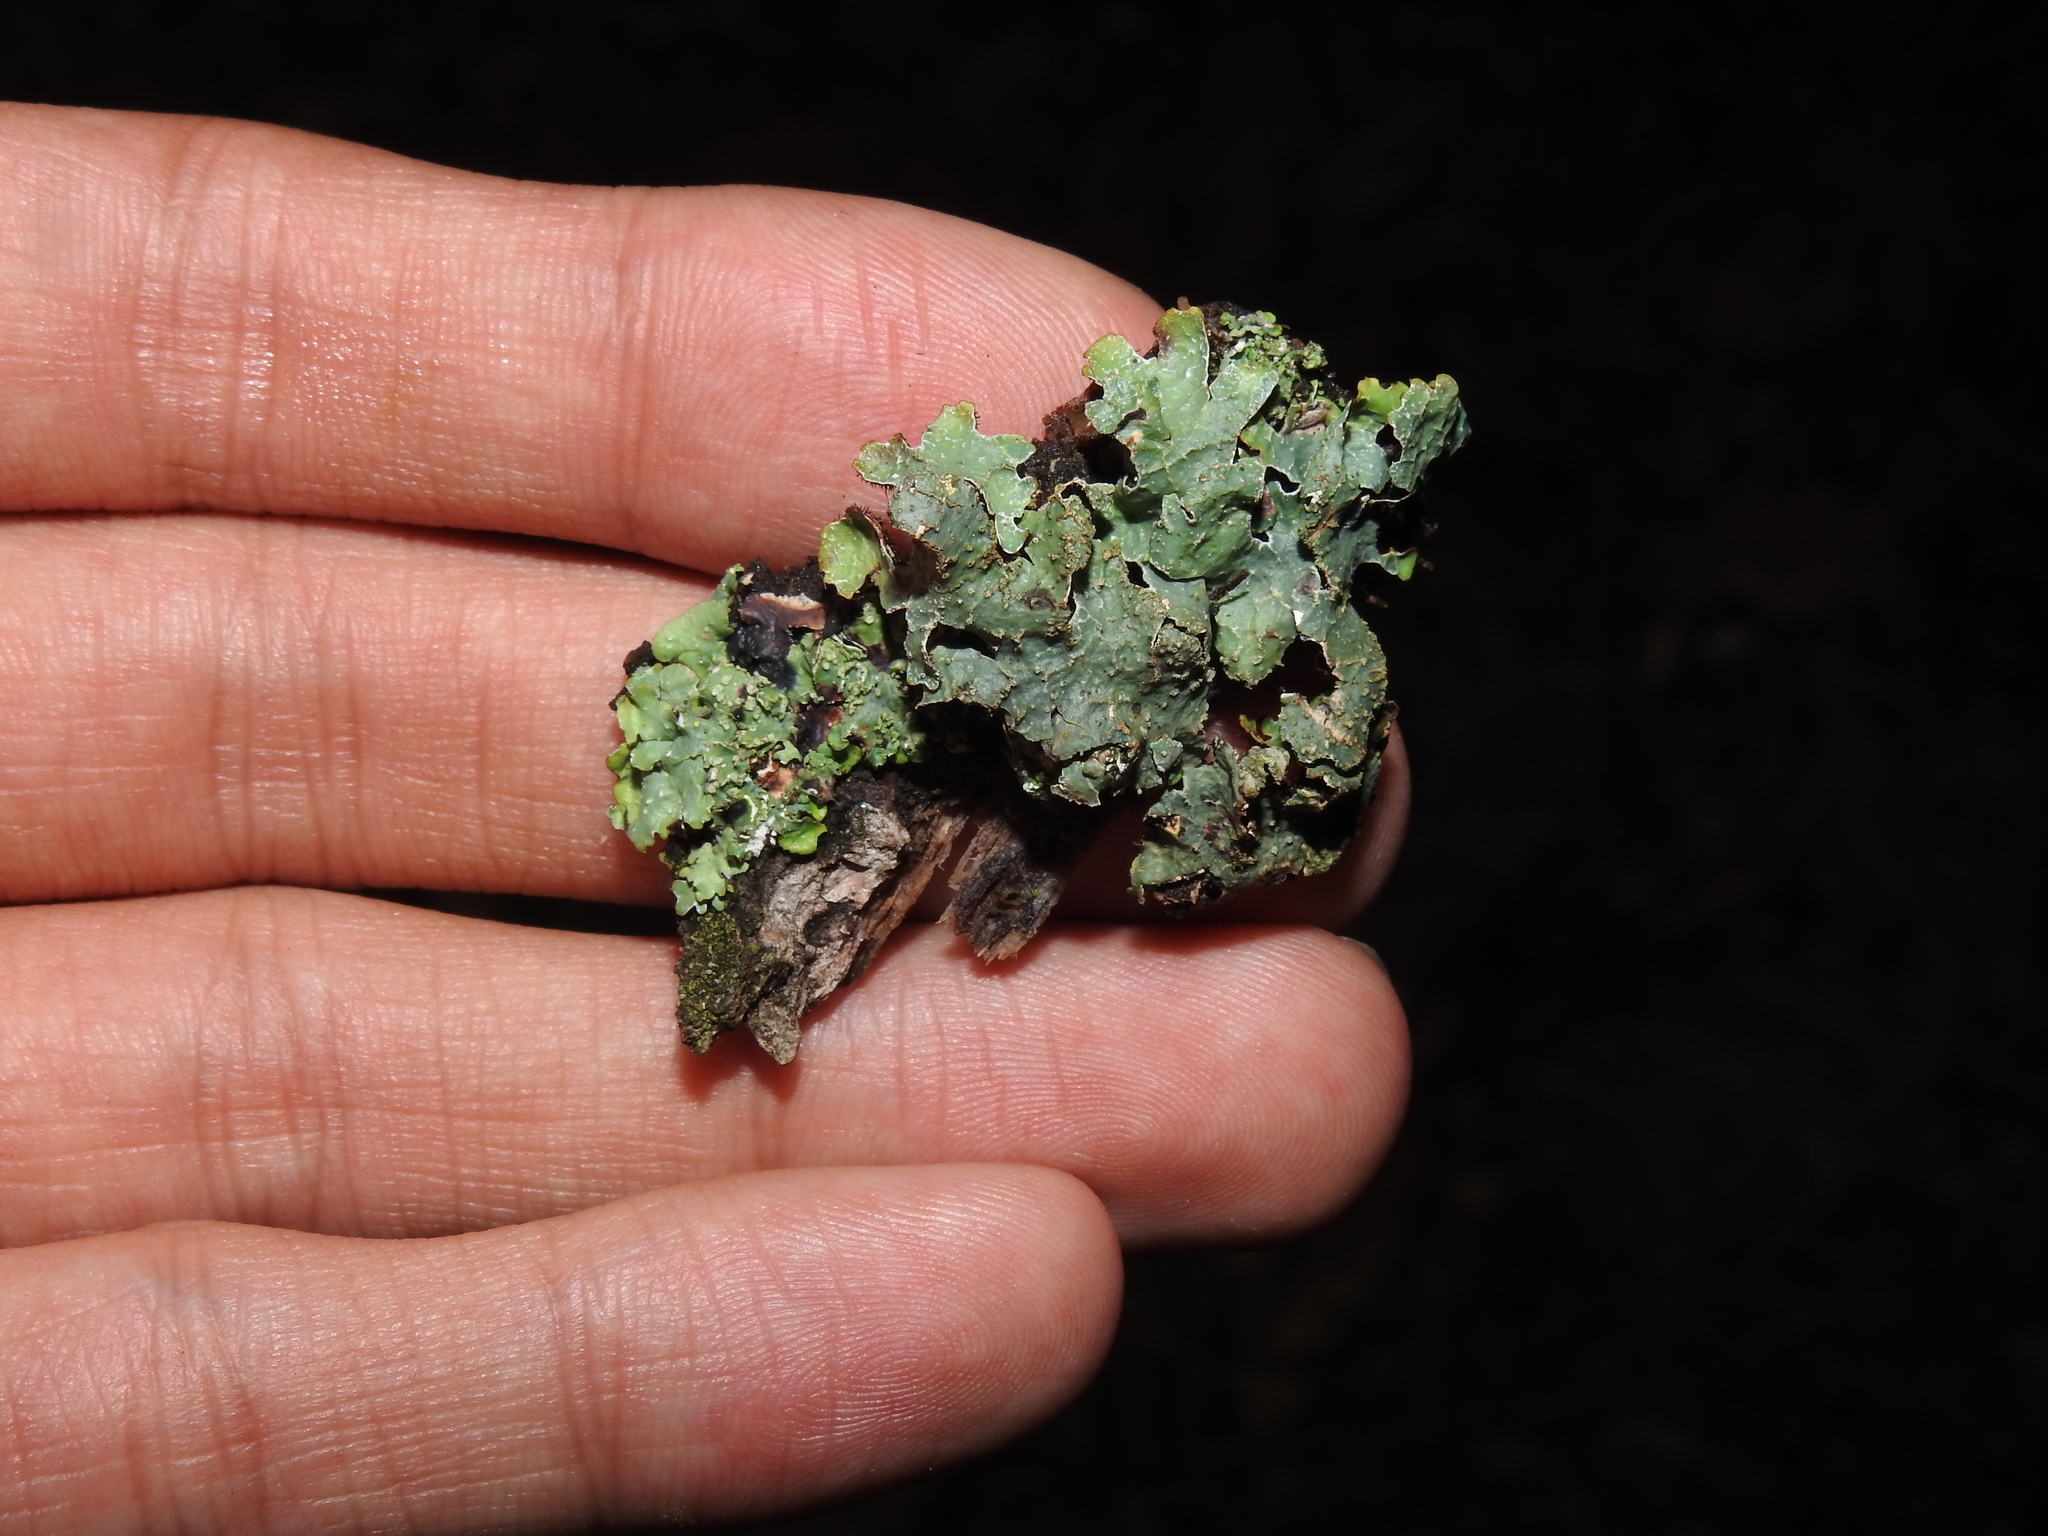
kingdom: Fungi
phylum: Ascomycota
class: Lecanoromycetes
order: Lecanorales
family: Parmeliaceae
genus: Parmelia
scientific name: Parmelia sulcata
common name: Netted shield lichen
